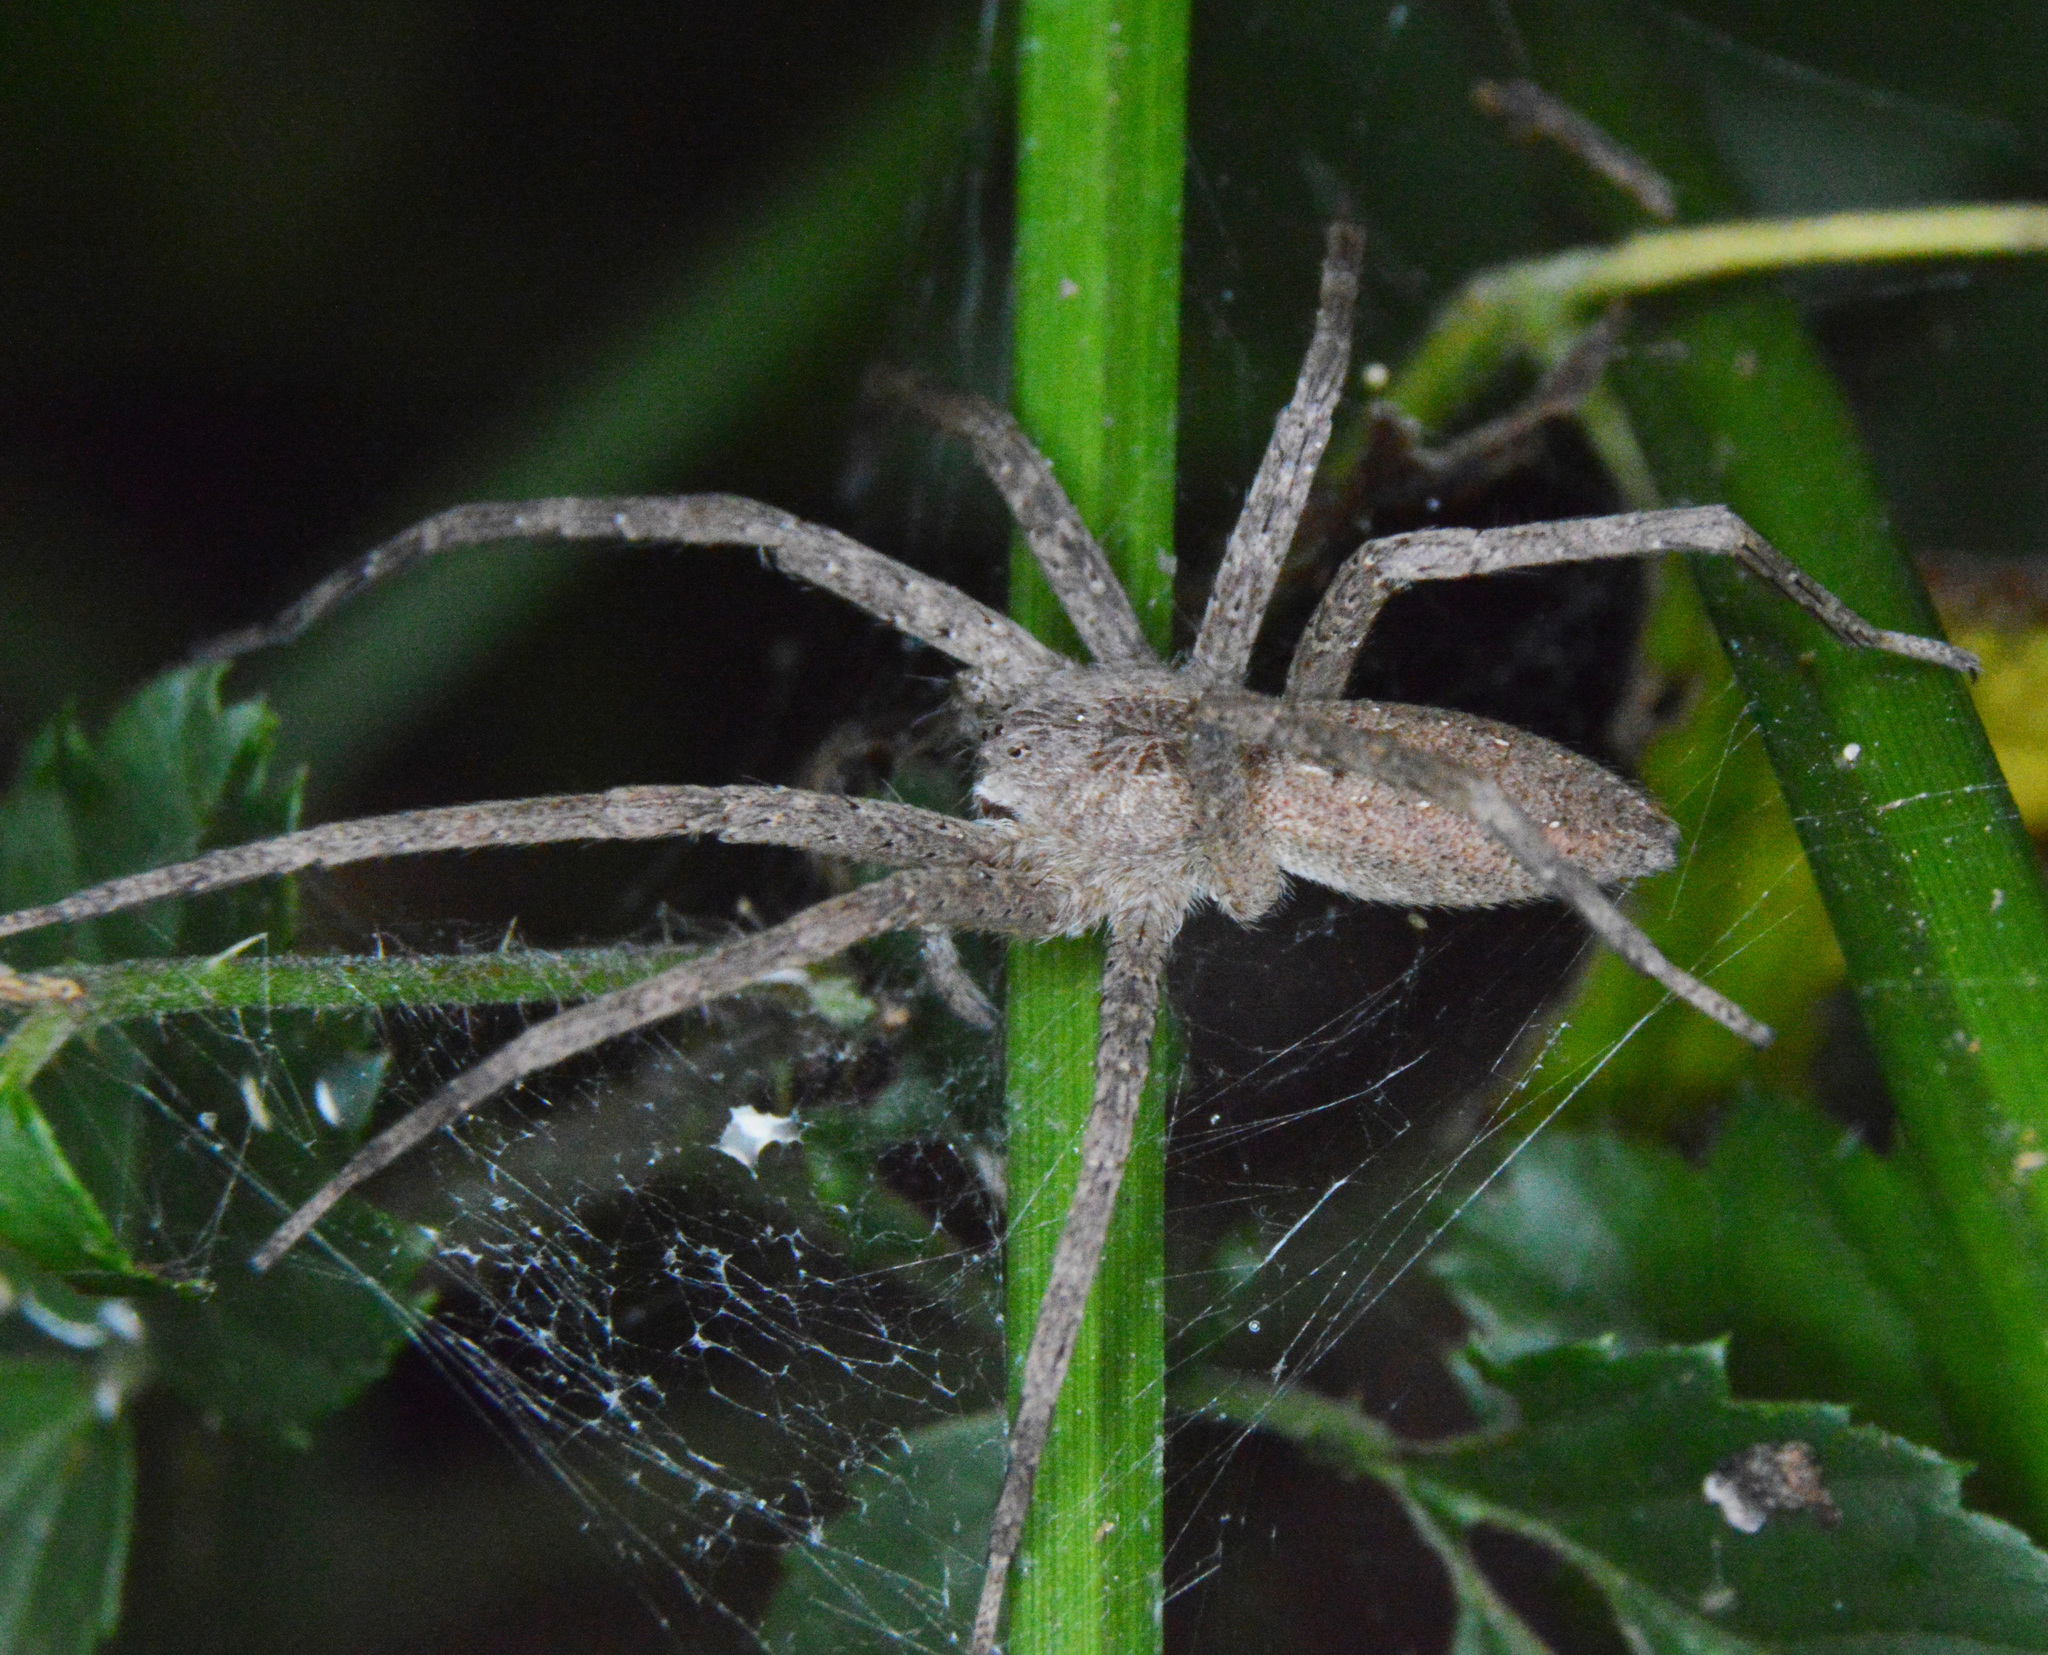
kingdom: Animalia
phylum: Arthropoda
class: Arachnida
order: Araneae
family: Pisauridae
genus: Pisaurina
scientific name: Pisaurina mira
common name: American nursery web spider
